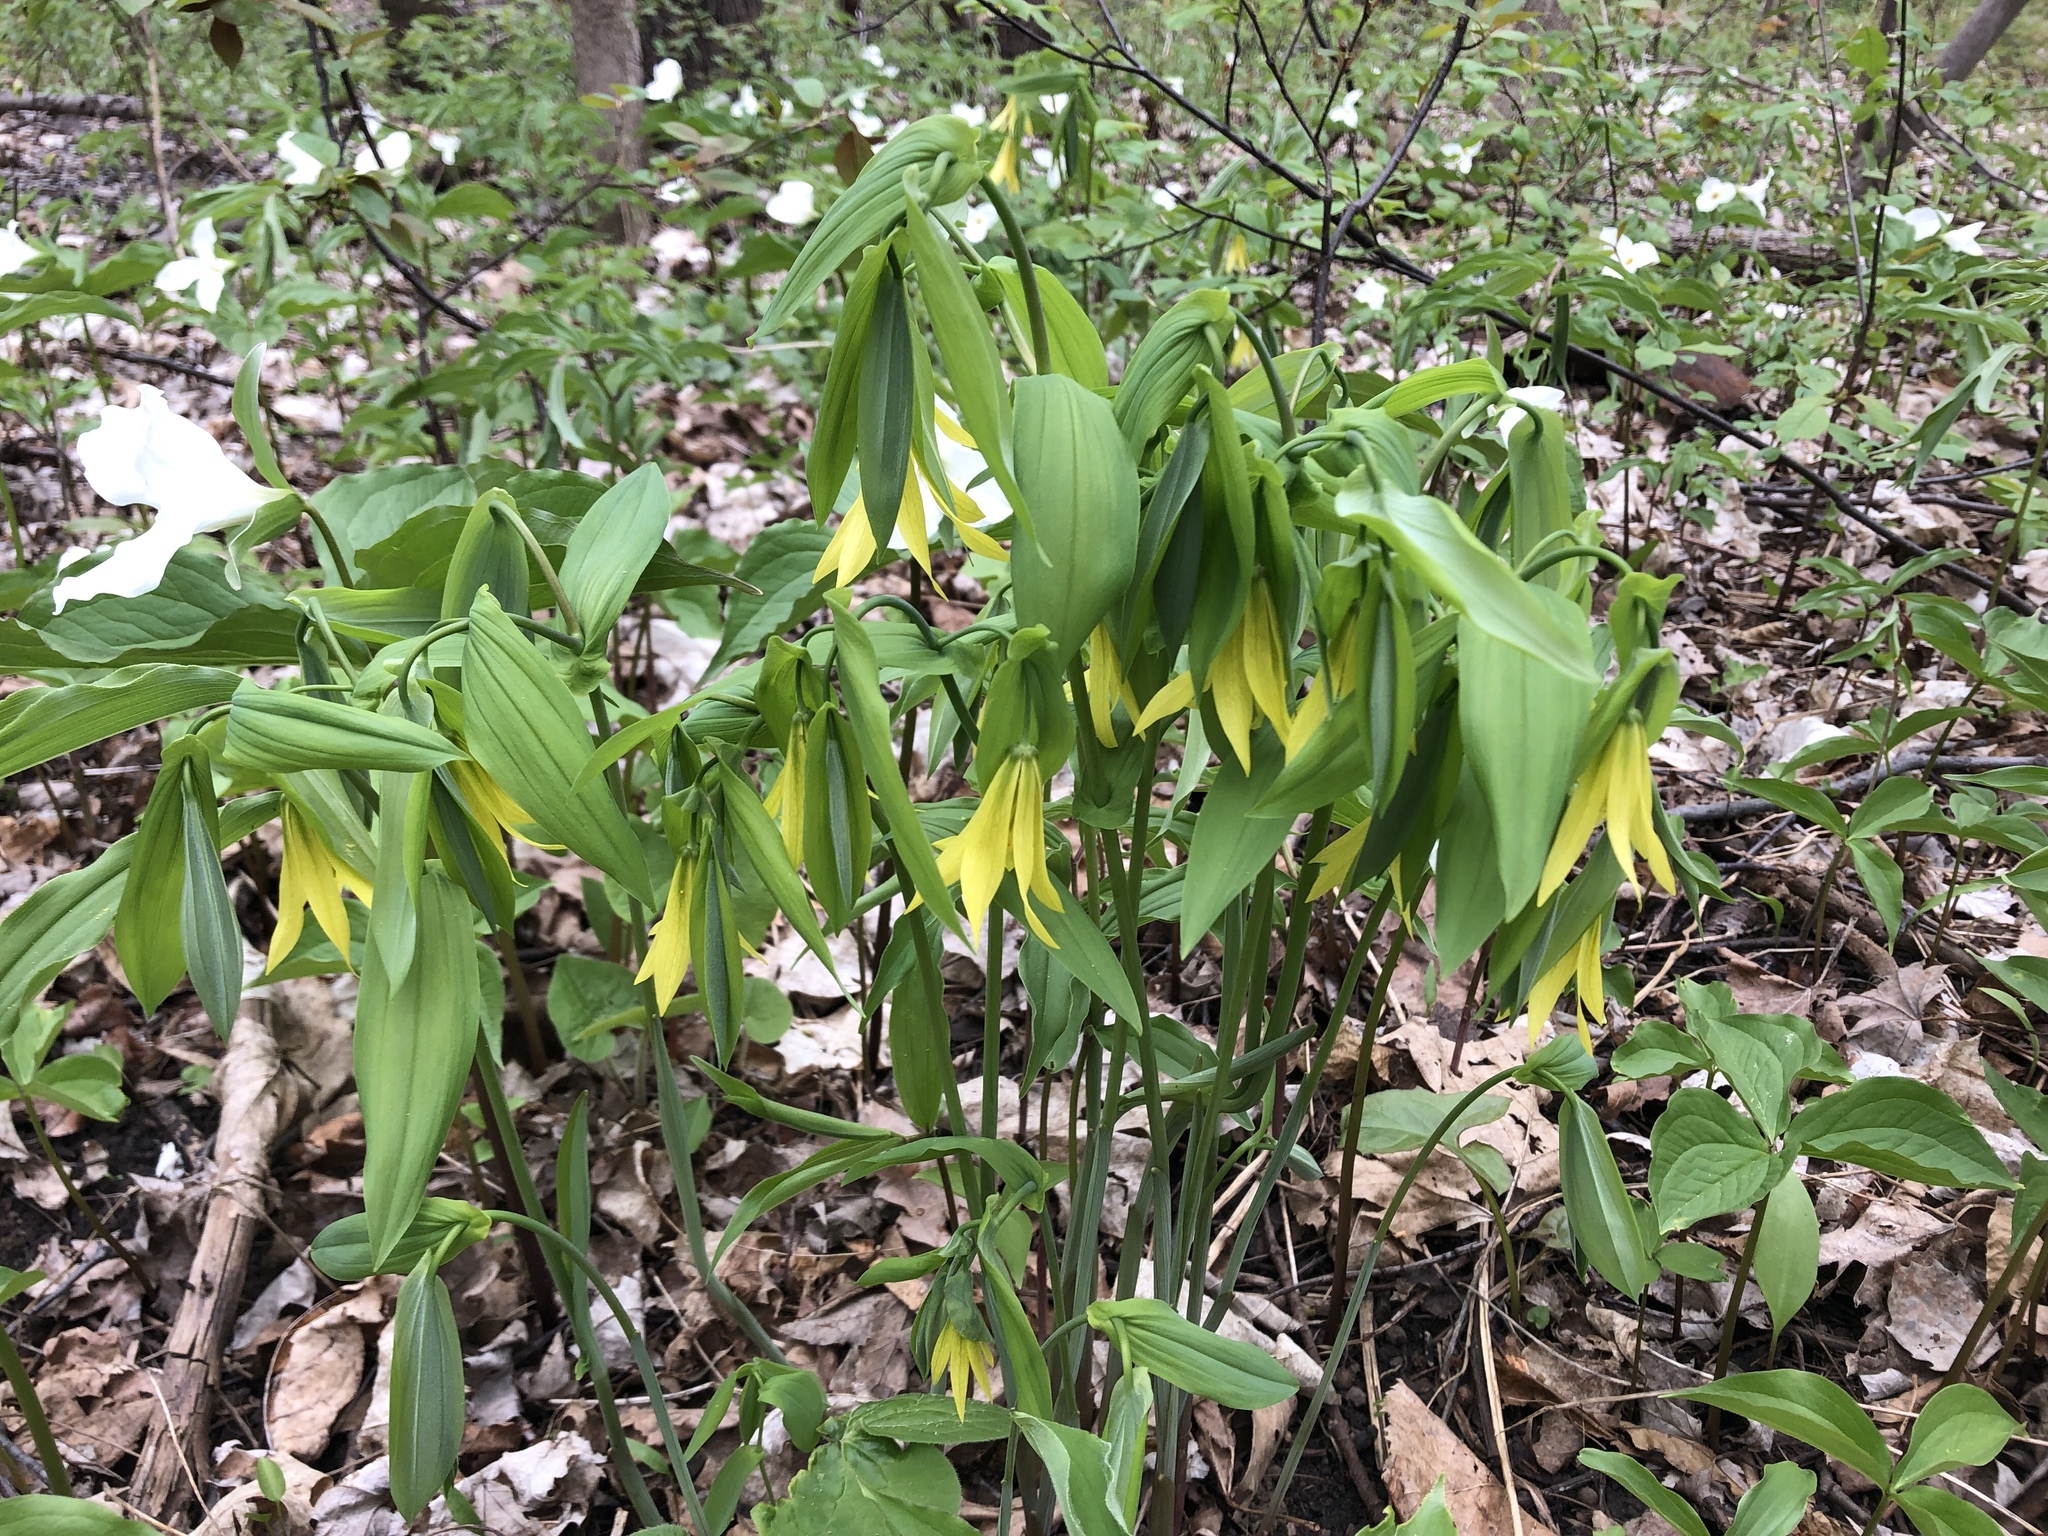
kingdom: Plantae
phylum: Tracheophyta
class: Liliopsida
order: Liliales
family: Colchicaceae
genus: Uvularia
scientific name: Uvularia grandiflora
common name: Bellwort
